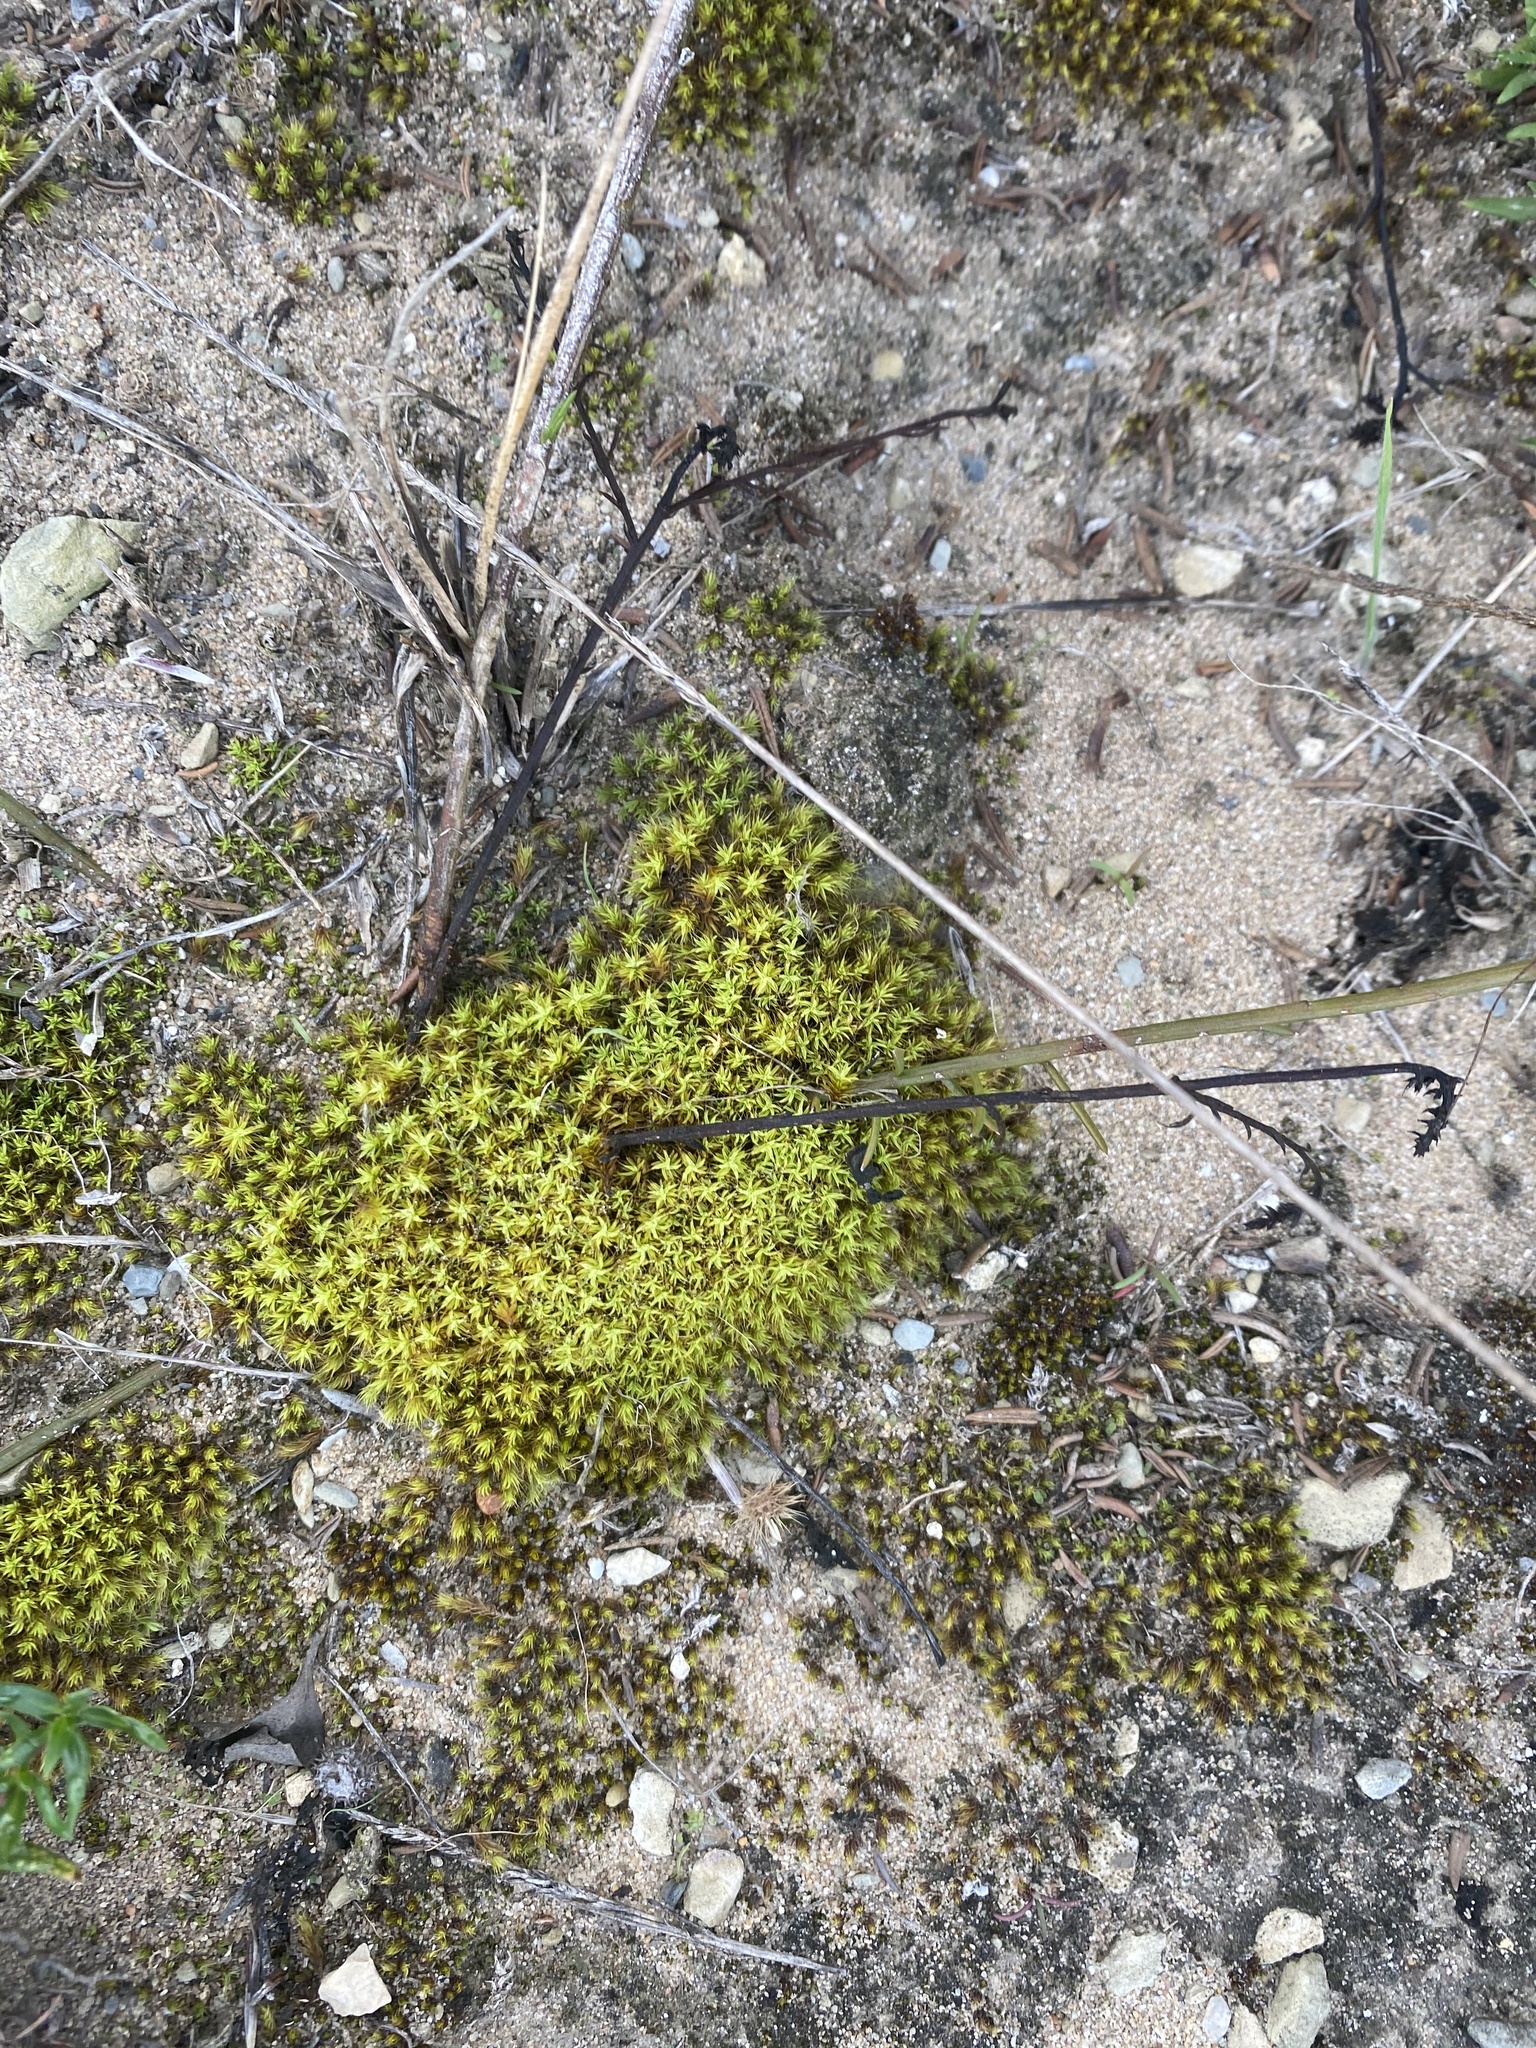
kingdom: Plantae
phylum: Bryophyta
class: Bryopsida
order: Pottiales
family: Pottiaceae
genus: Pseudocrossidium
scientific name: Pseudocrossidium crinitum
